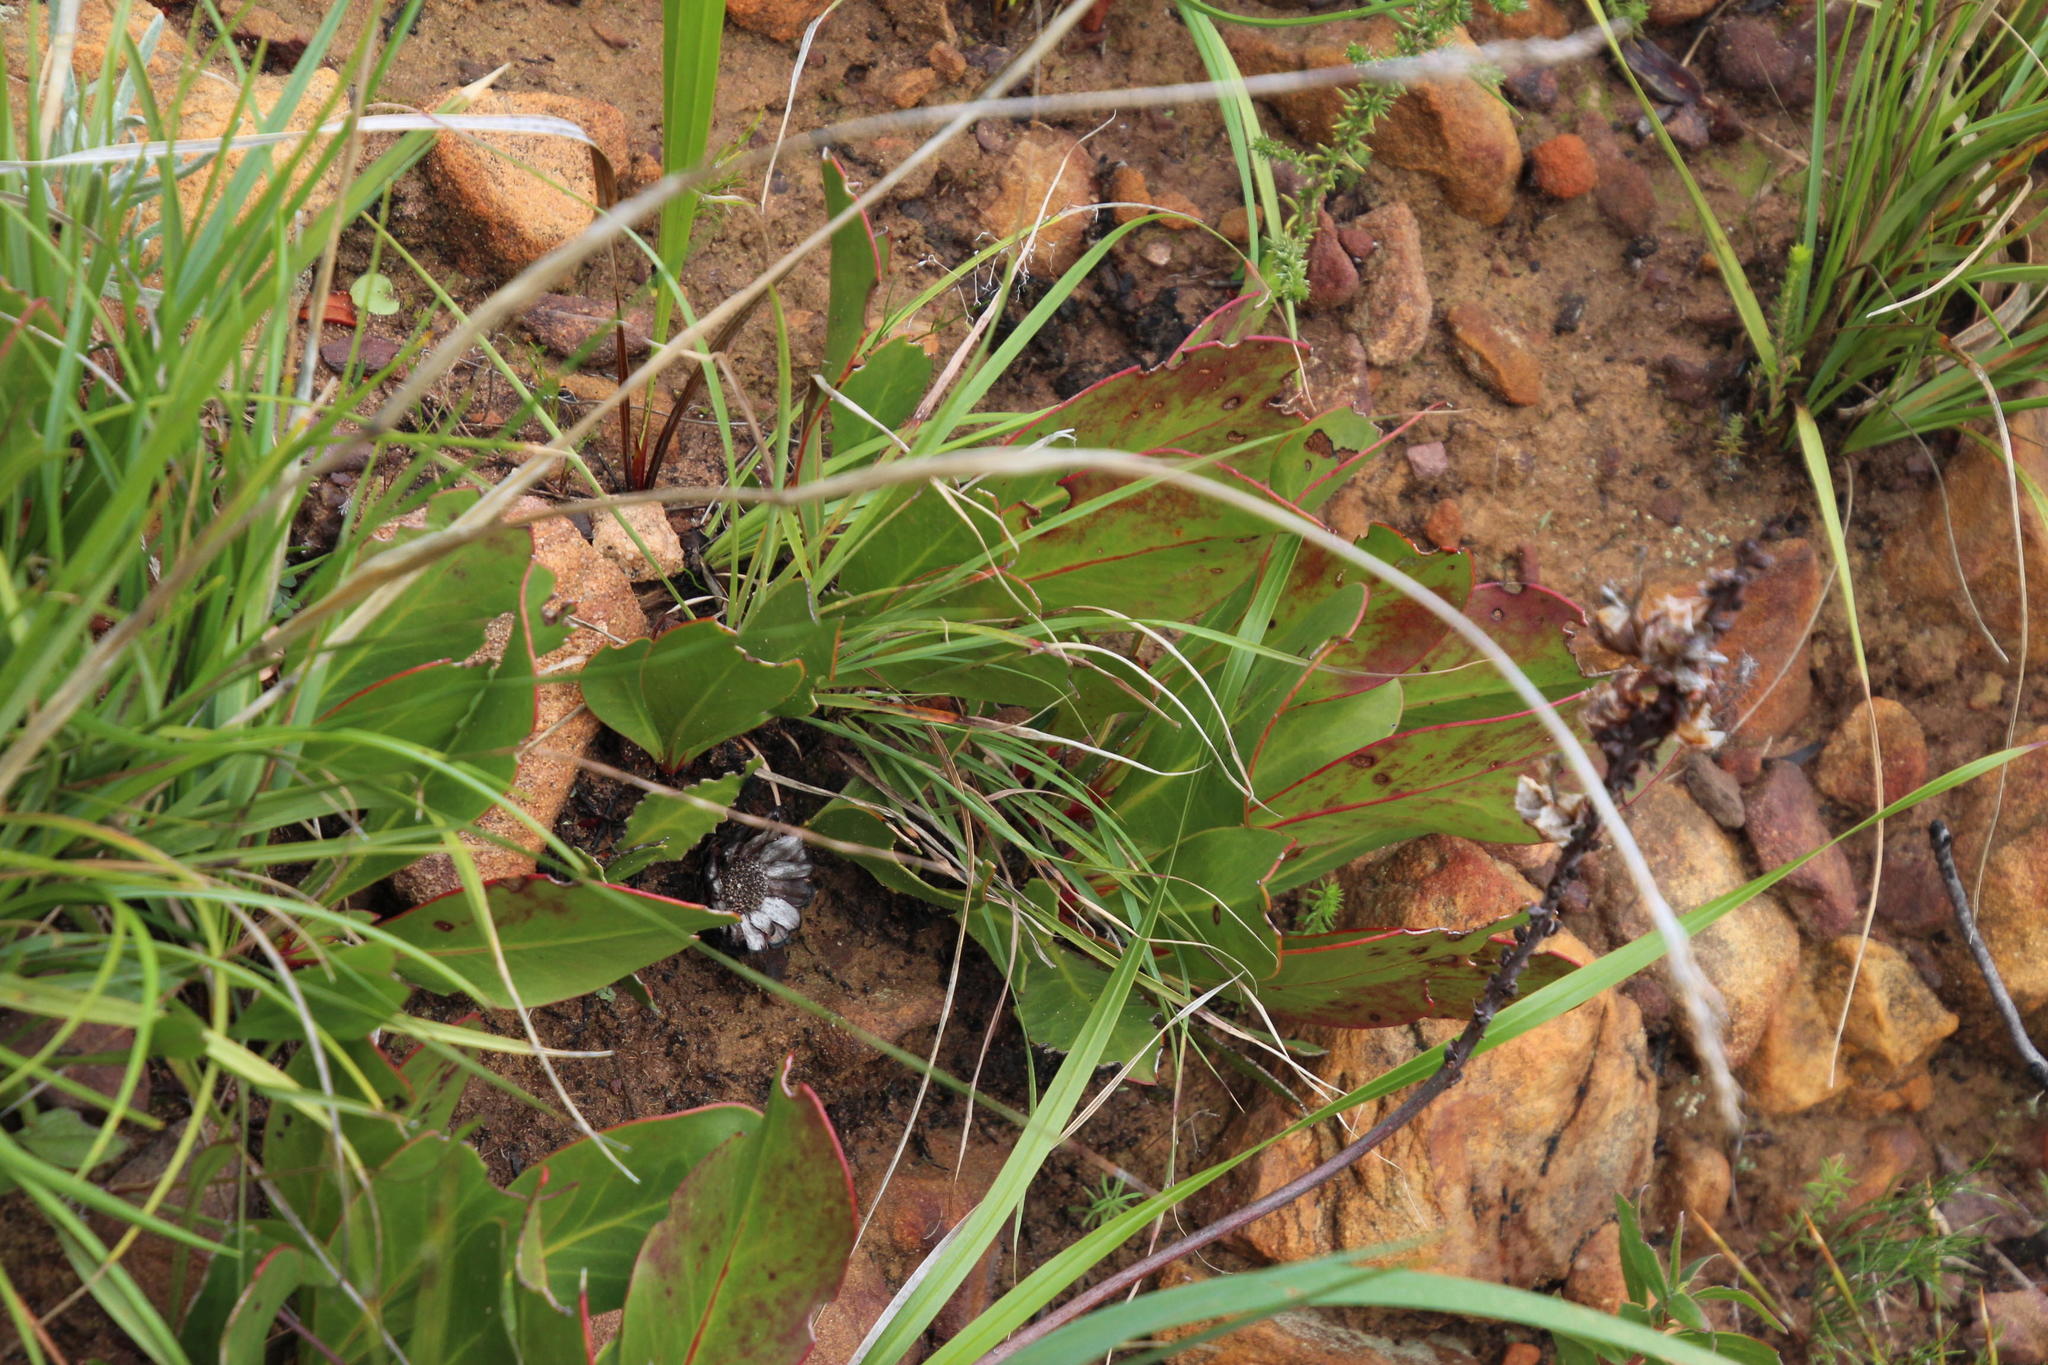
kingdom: Plantae
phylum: Tracheophyta
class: Magnoliopsida
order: Proteales
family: Proteaceae
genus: Protea
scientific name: Protea acaulos
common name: Common ground sugarbush
